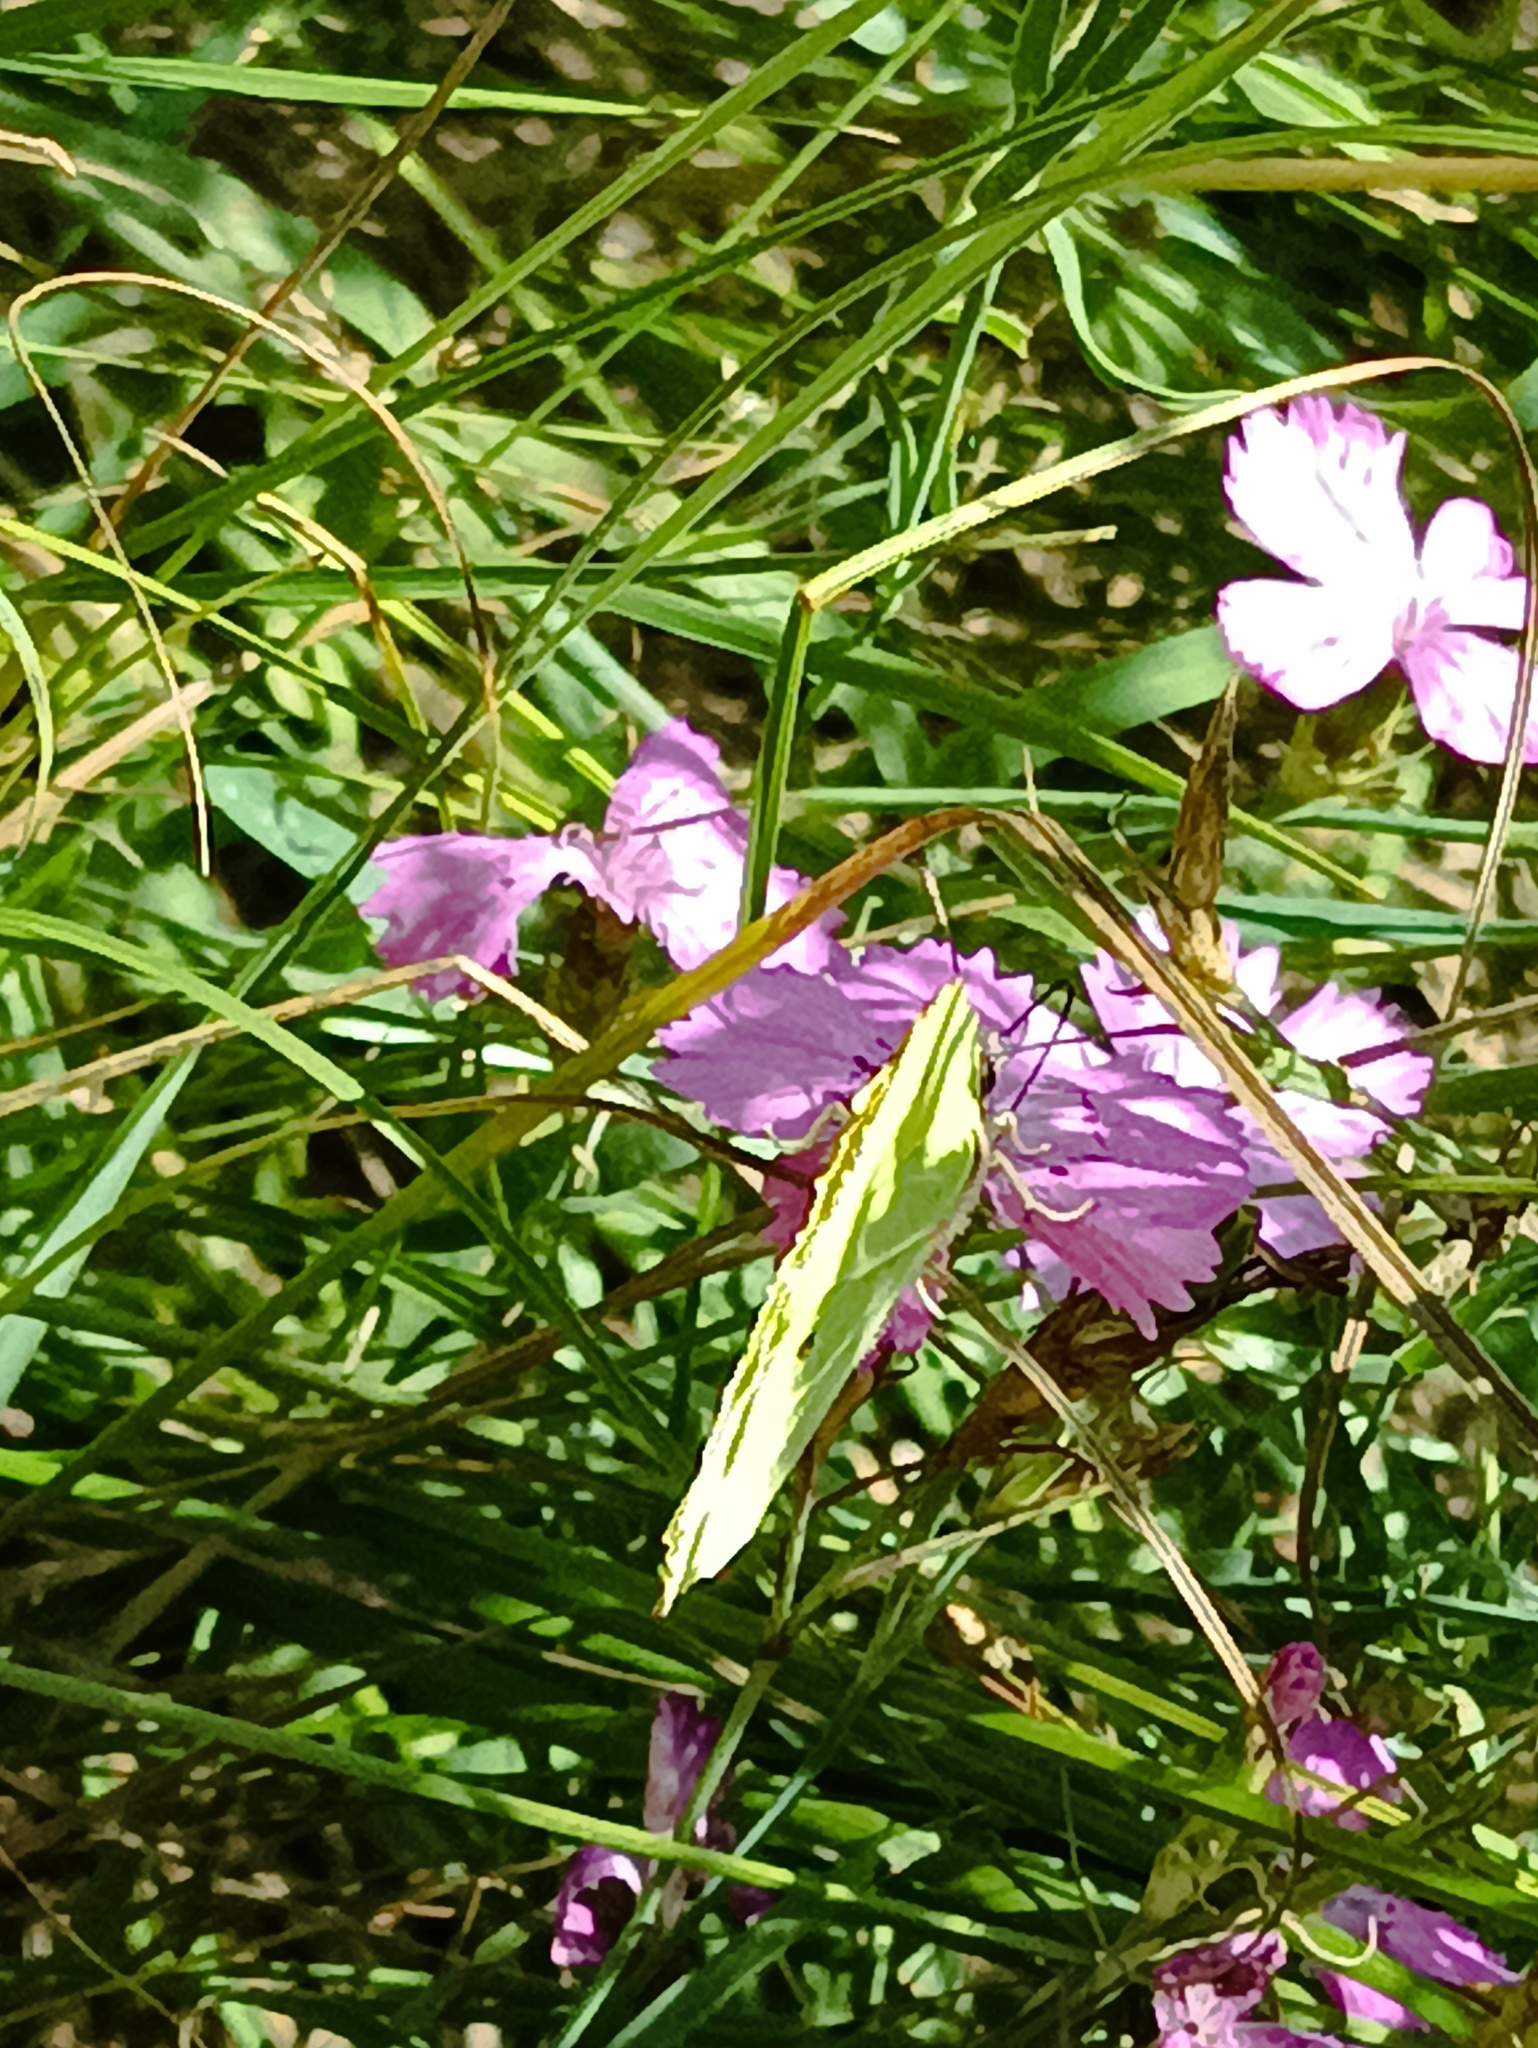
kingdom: Animalia
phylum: Arthropoda
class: Insecta
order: Lepidoptera
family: Pieridae
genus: Gonepteryx
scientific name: Gonepteryx rhamni
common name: Brimstone
